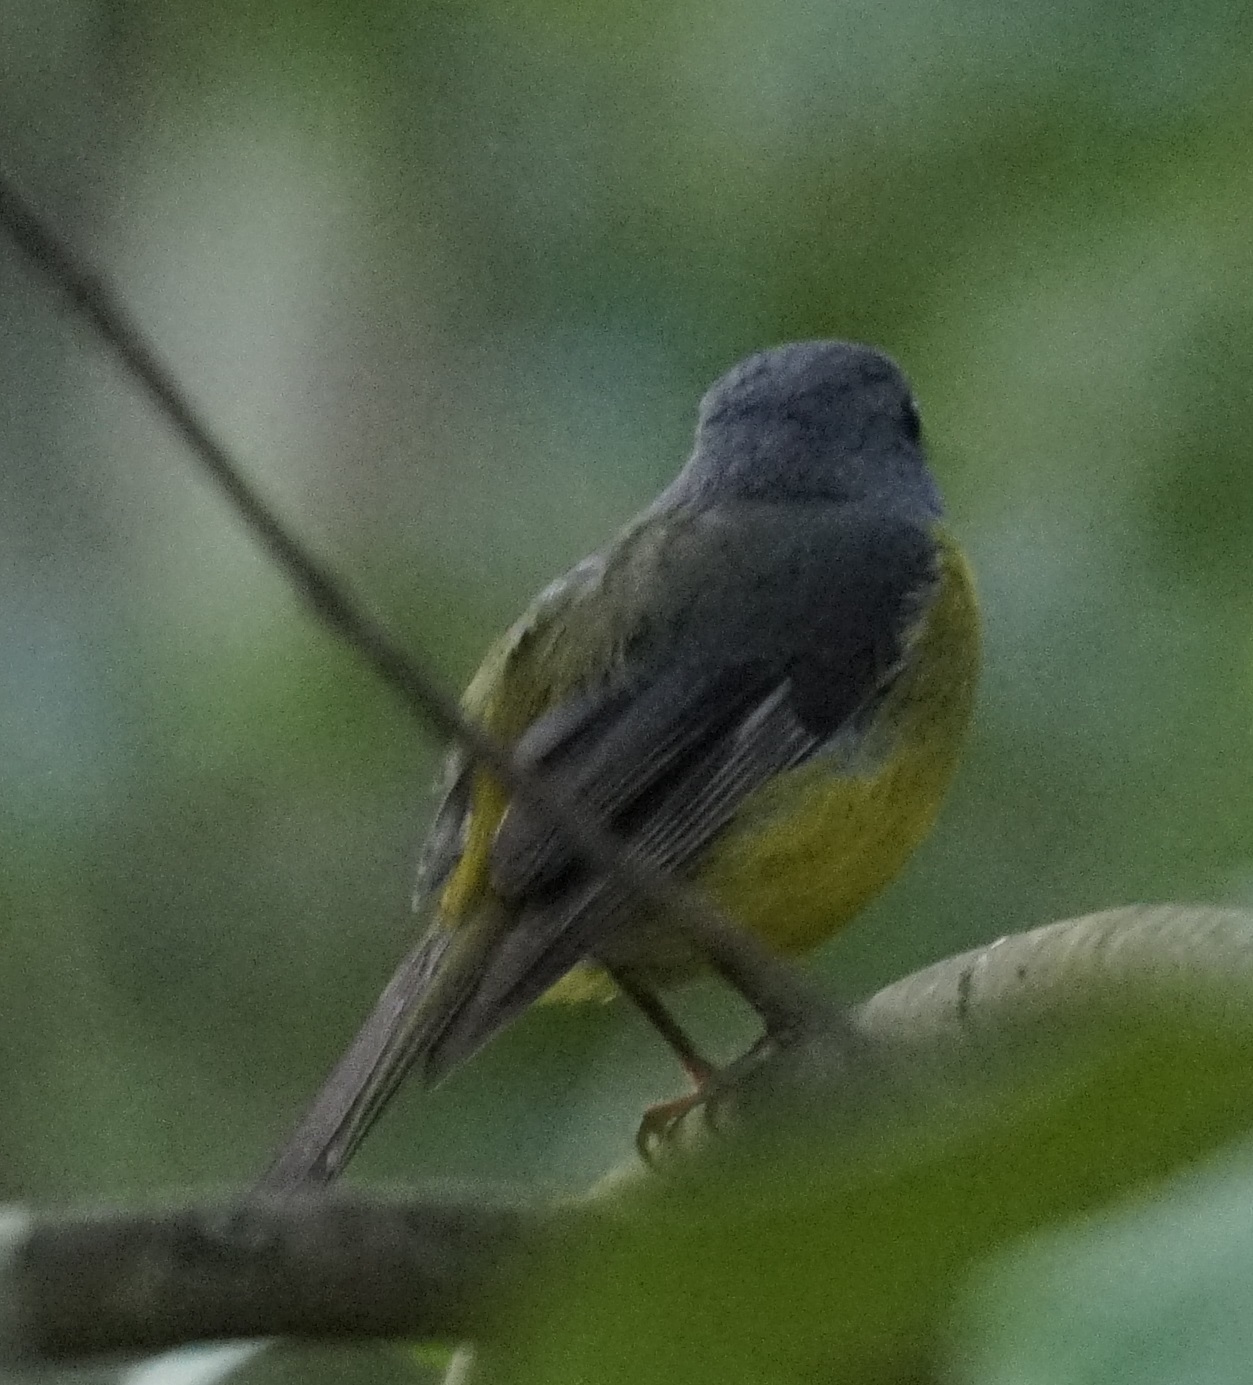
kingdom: Animalia
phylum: Chordata
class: Aves
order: Passeriformes
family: Petroicidae
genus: Eopsaltria
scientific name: Eopsaltria australis
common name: Eastern yellow robin
